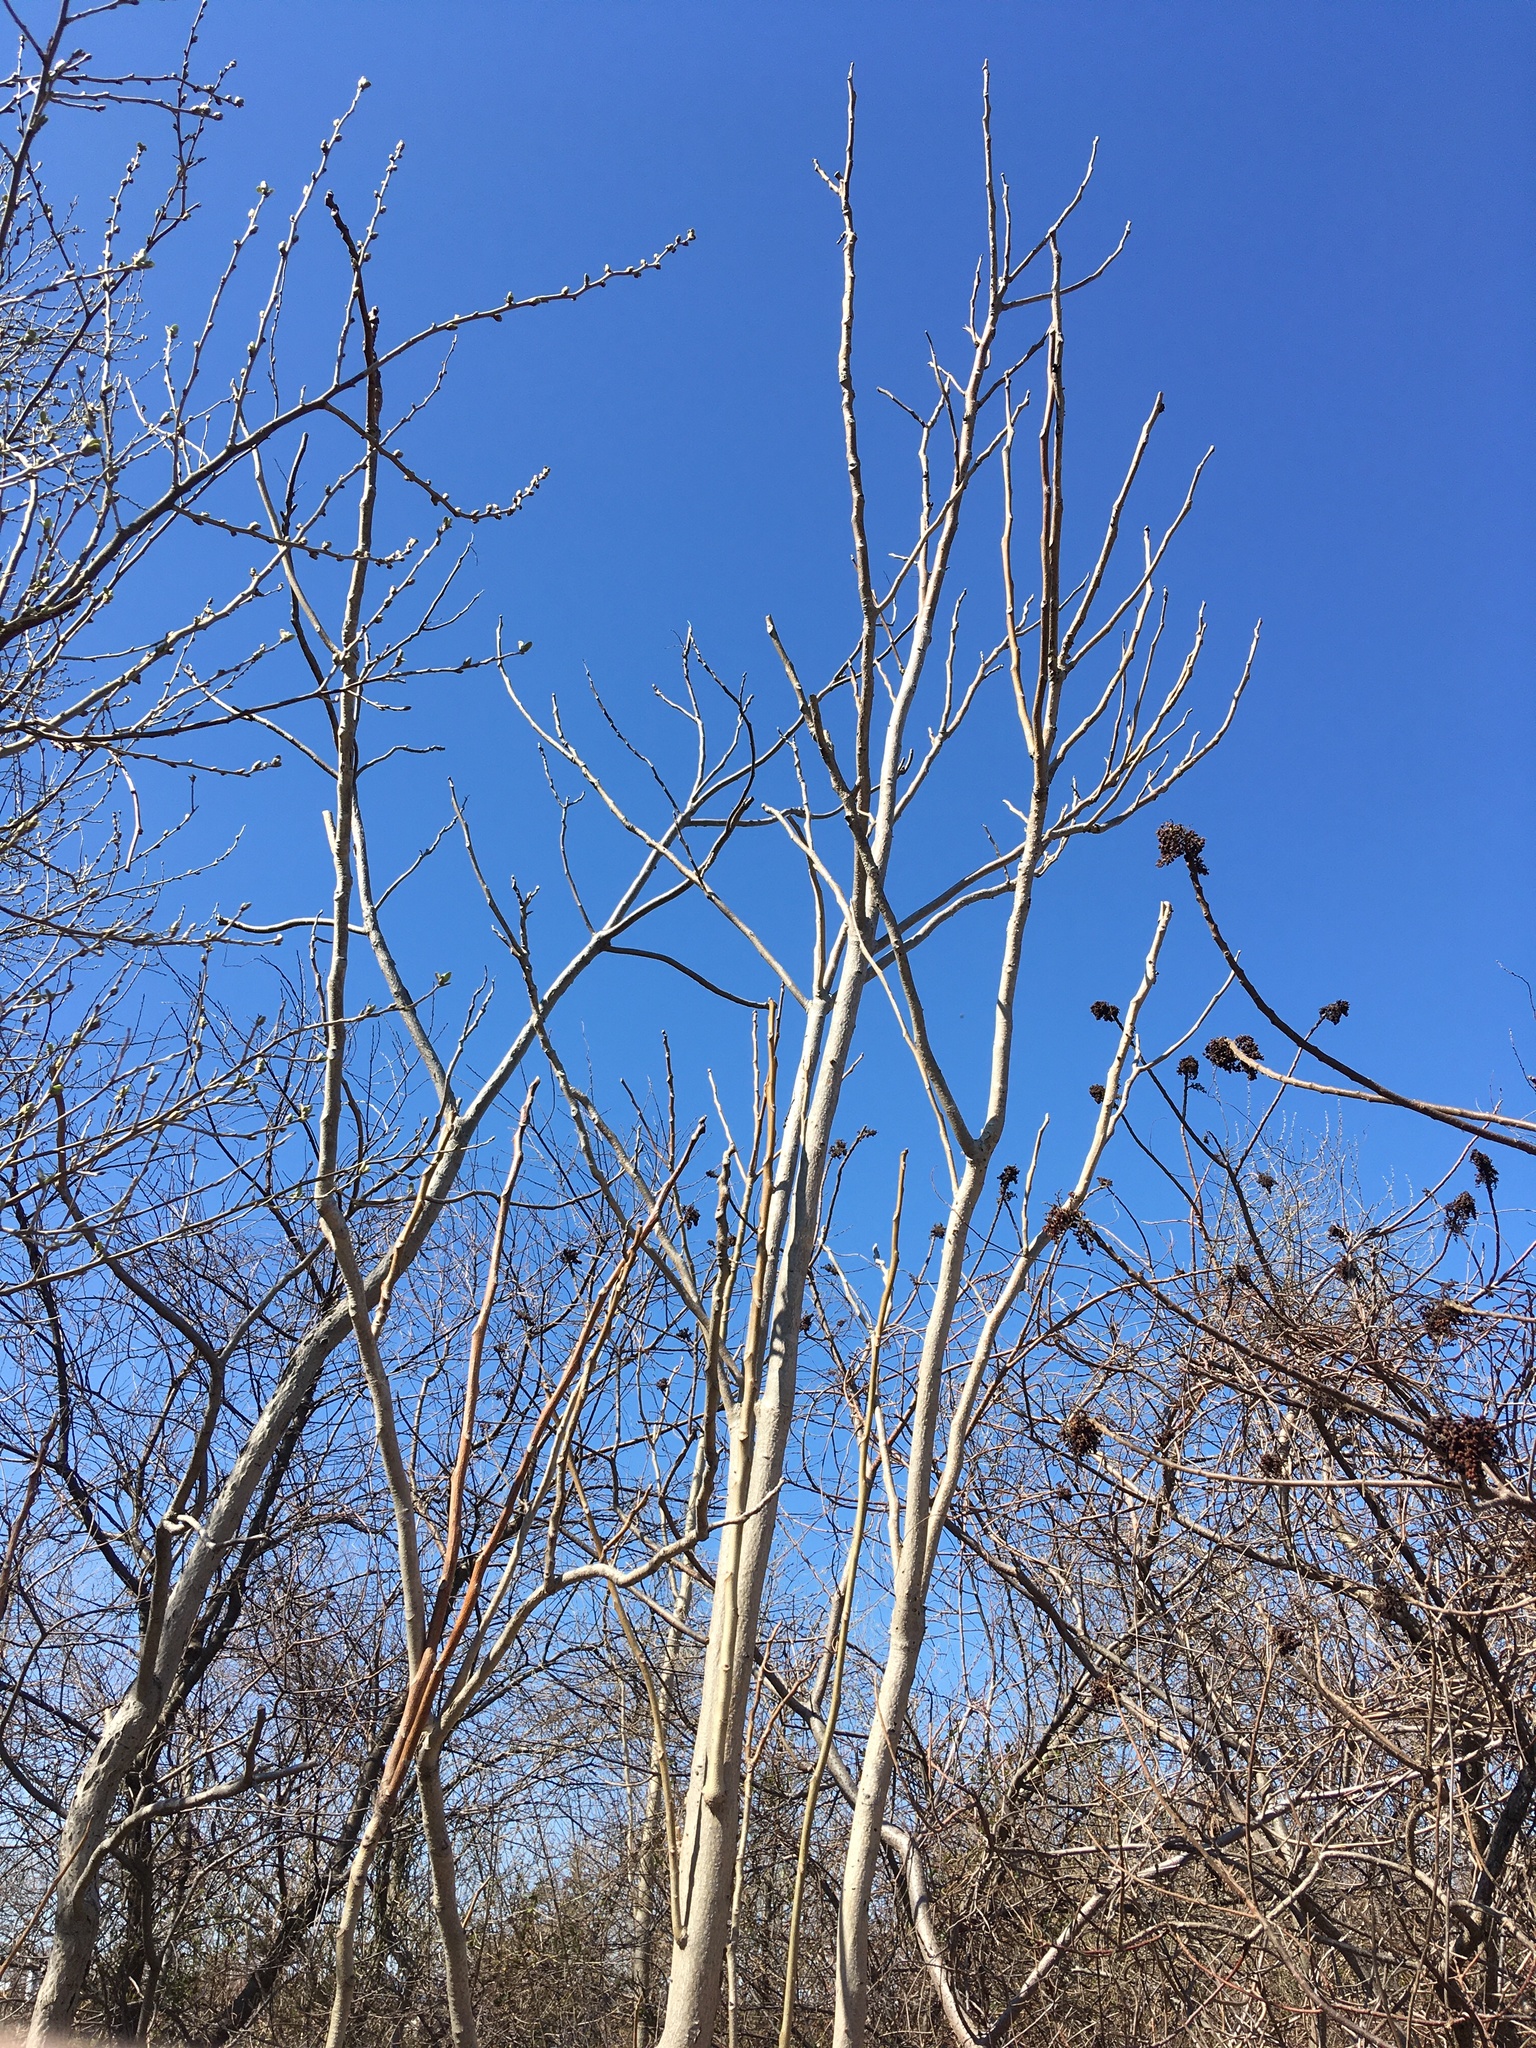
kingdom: Plantae
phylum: Tracheophyta
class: Magnoliopsida
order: Sapindales
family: Simaroubaceae
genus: Ailanthus
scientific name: Ailanthus altissima
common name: Tree-of-heaven
